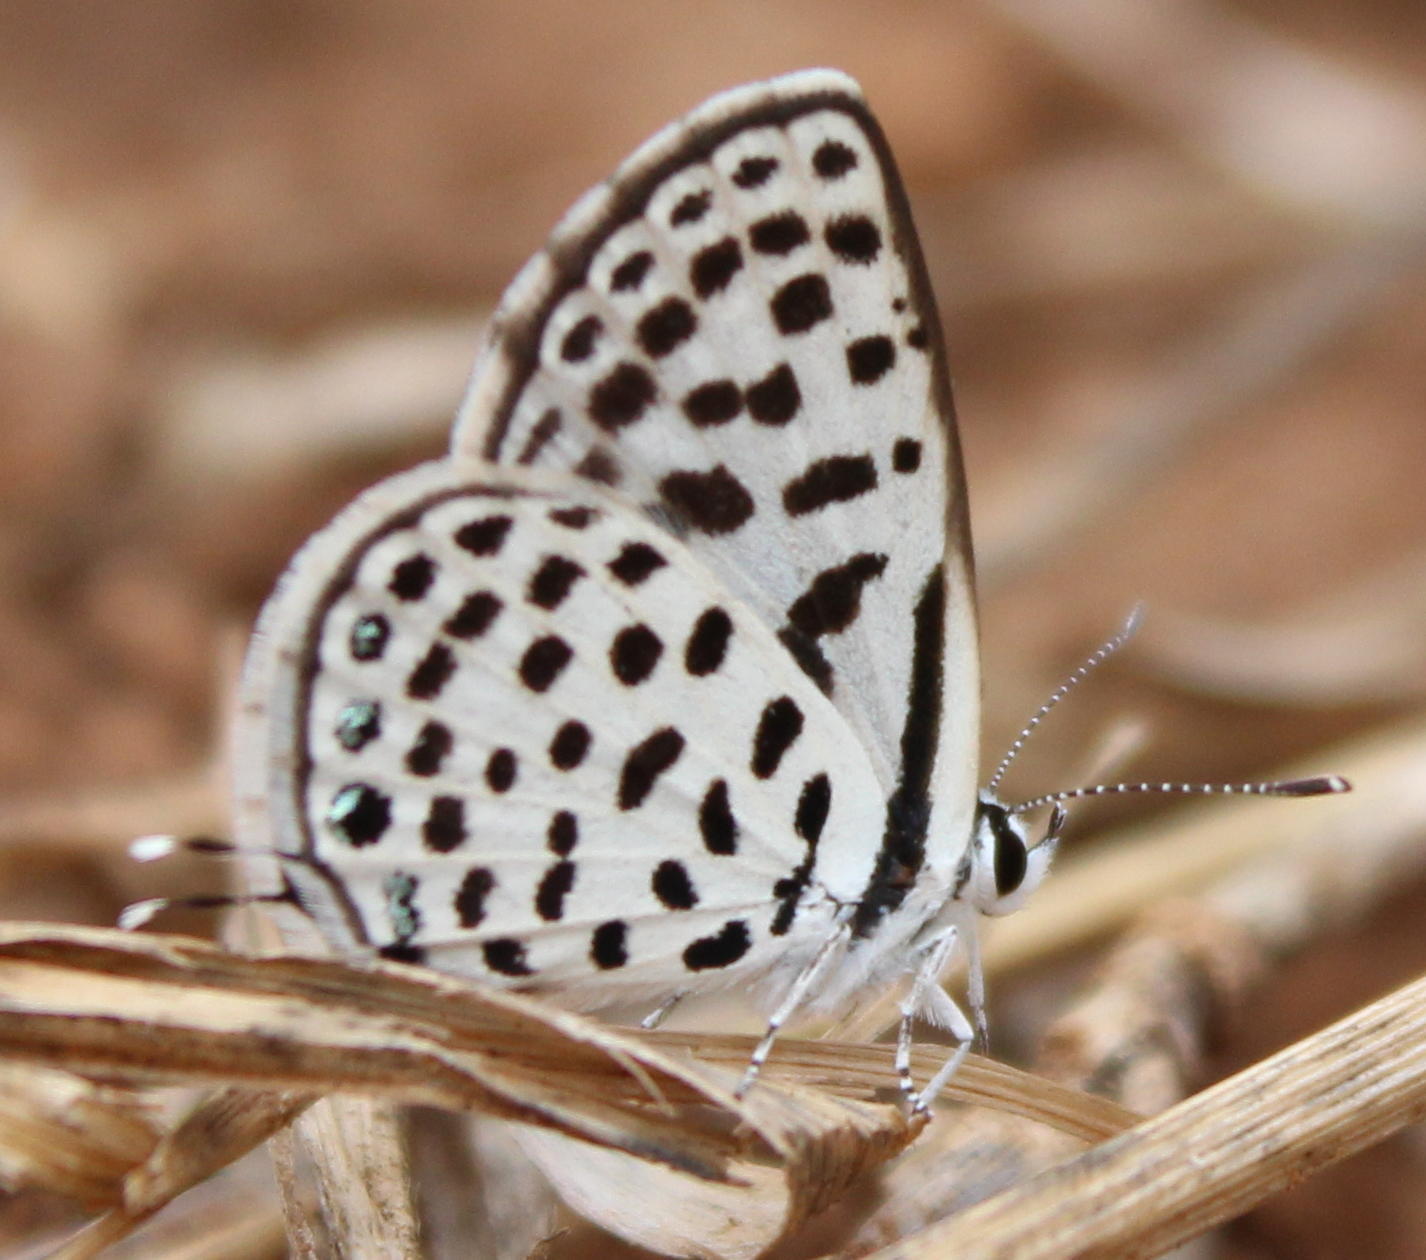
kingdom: Animalia
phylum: Arthropoda
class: Insecta
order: Lepidoptera
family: Lycaenidae
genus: Tarucus
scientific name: Tarucus sybaris
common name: Dotted blue
